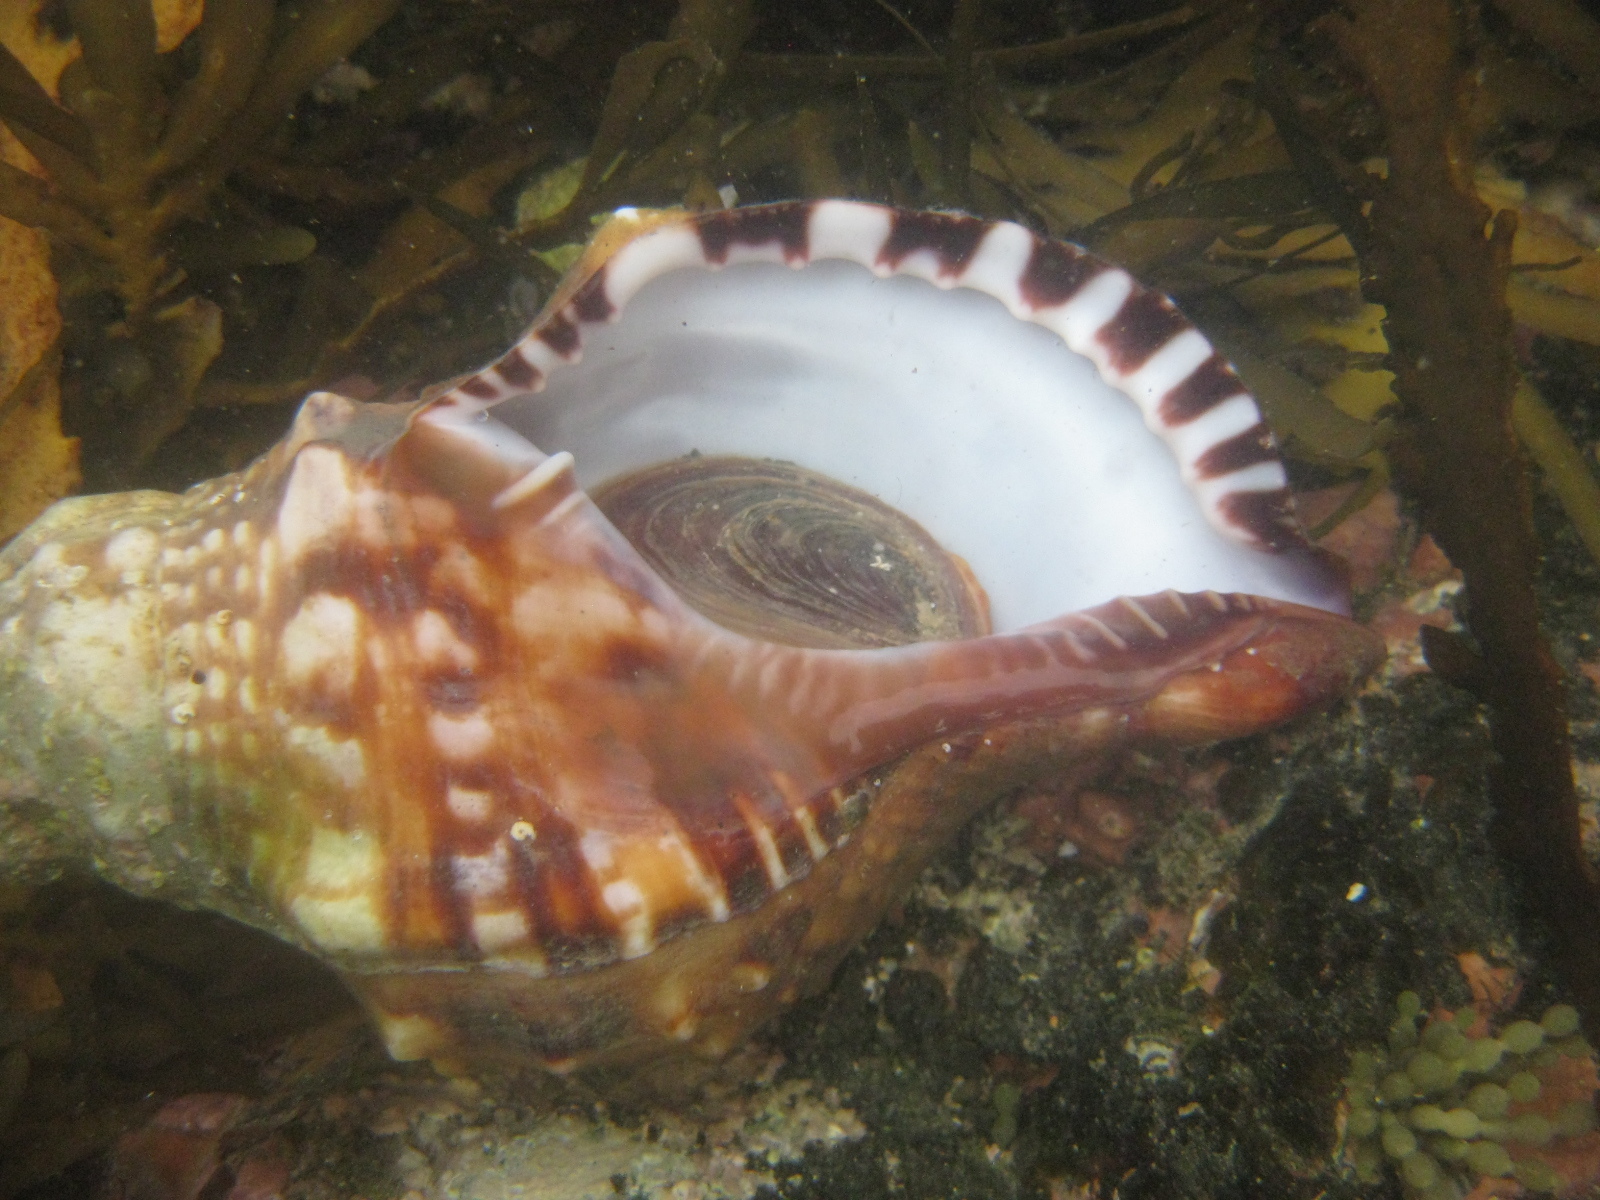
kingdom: Animalia
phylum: Mollusca
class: Gastropoda
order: Littorinimorpha
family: Charoniidae
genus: Charonia
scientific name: Charonia lampas
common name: Knobbed triton
